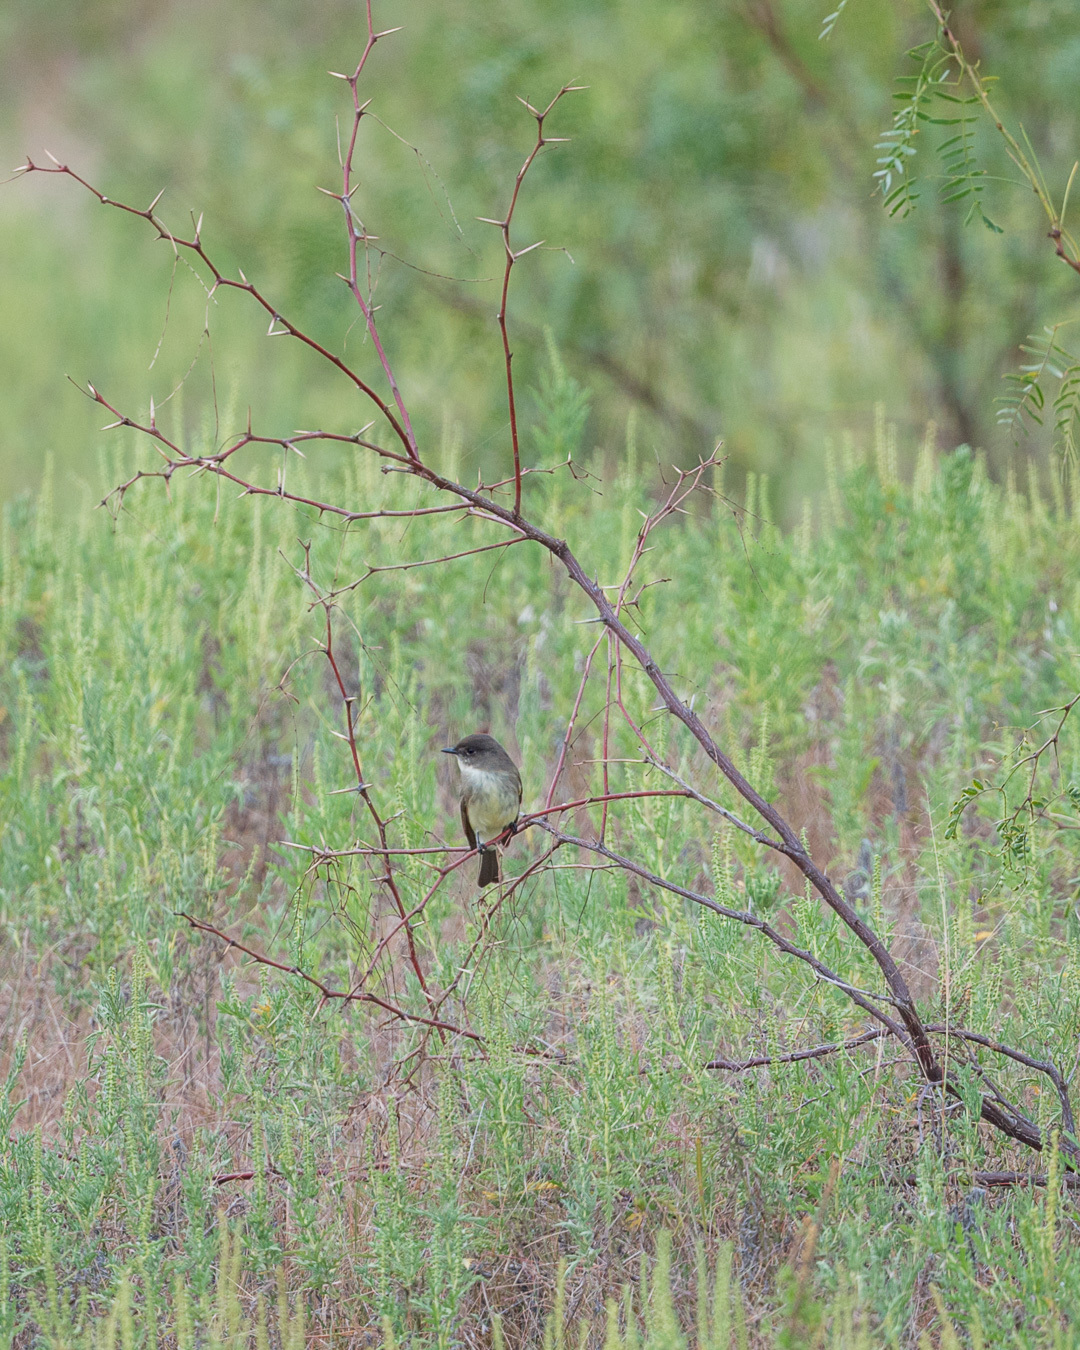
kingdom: Animalia
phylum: Chordata
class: Aves
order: Passeriformes
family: Tyrannidae
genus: Sayornis
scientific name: Sayornis phoebe
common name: Eastern phoebe
